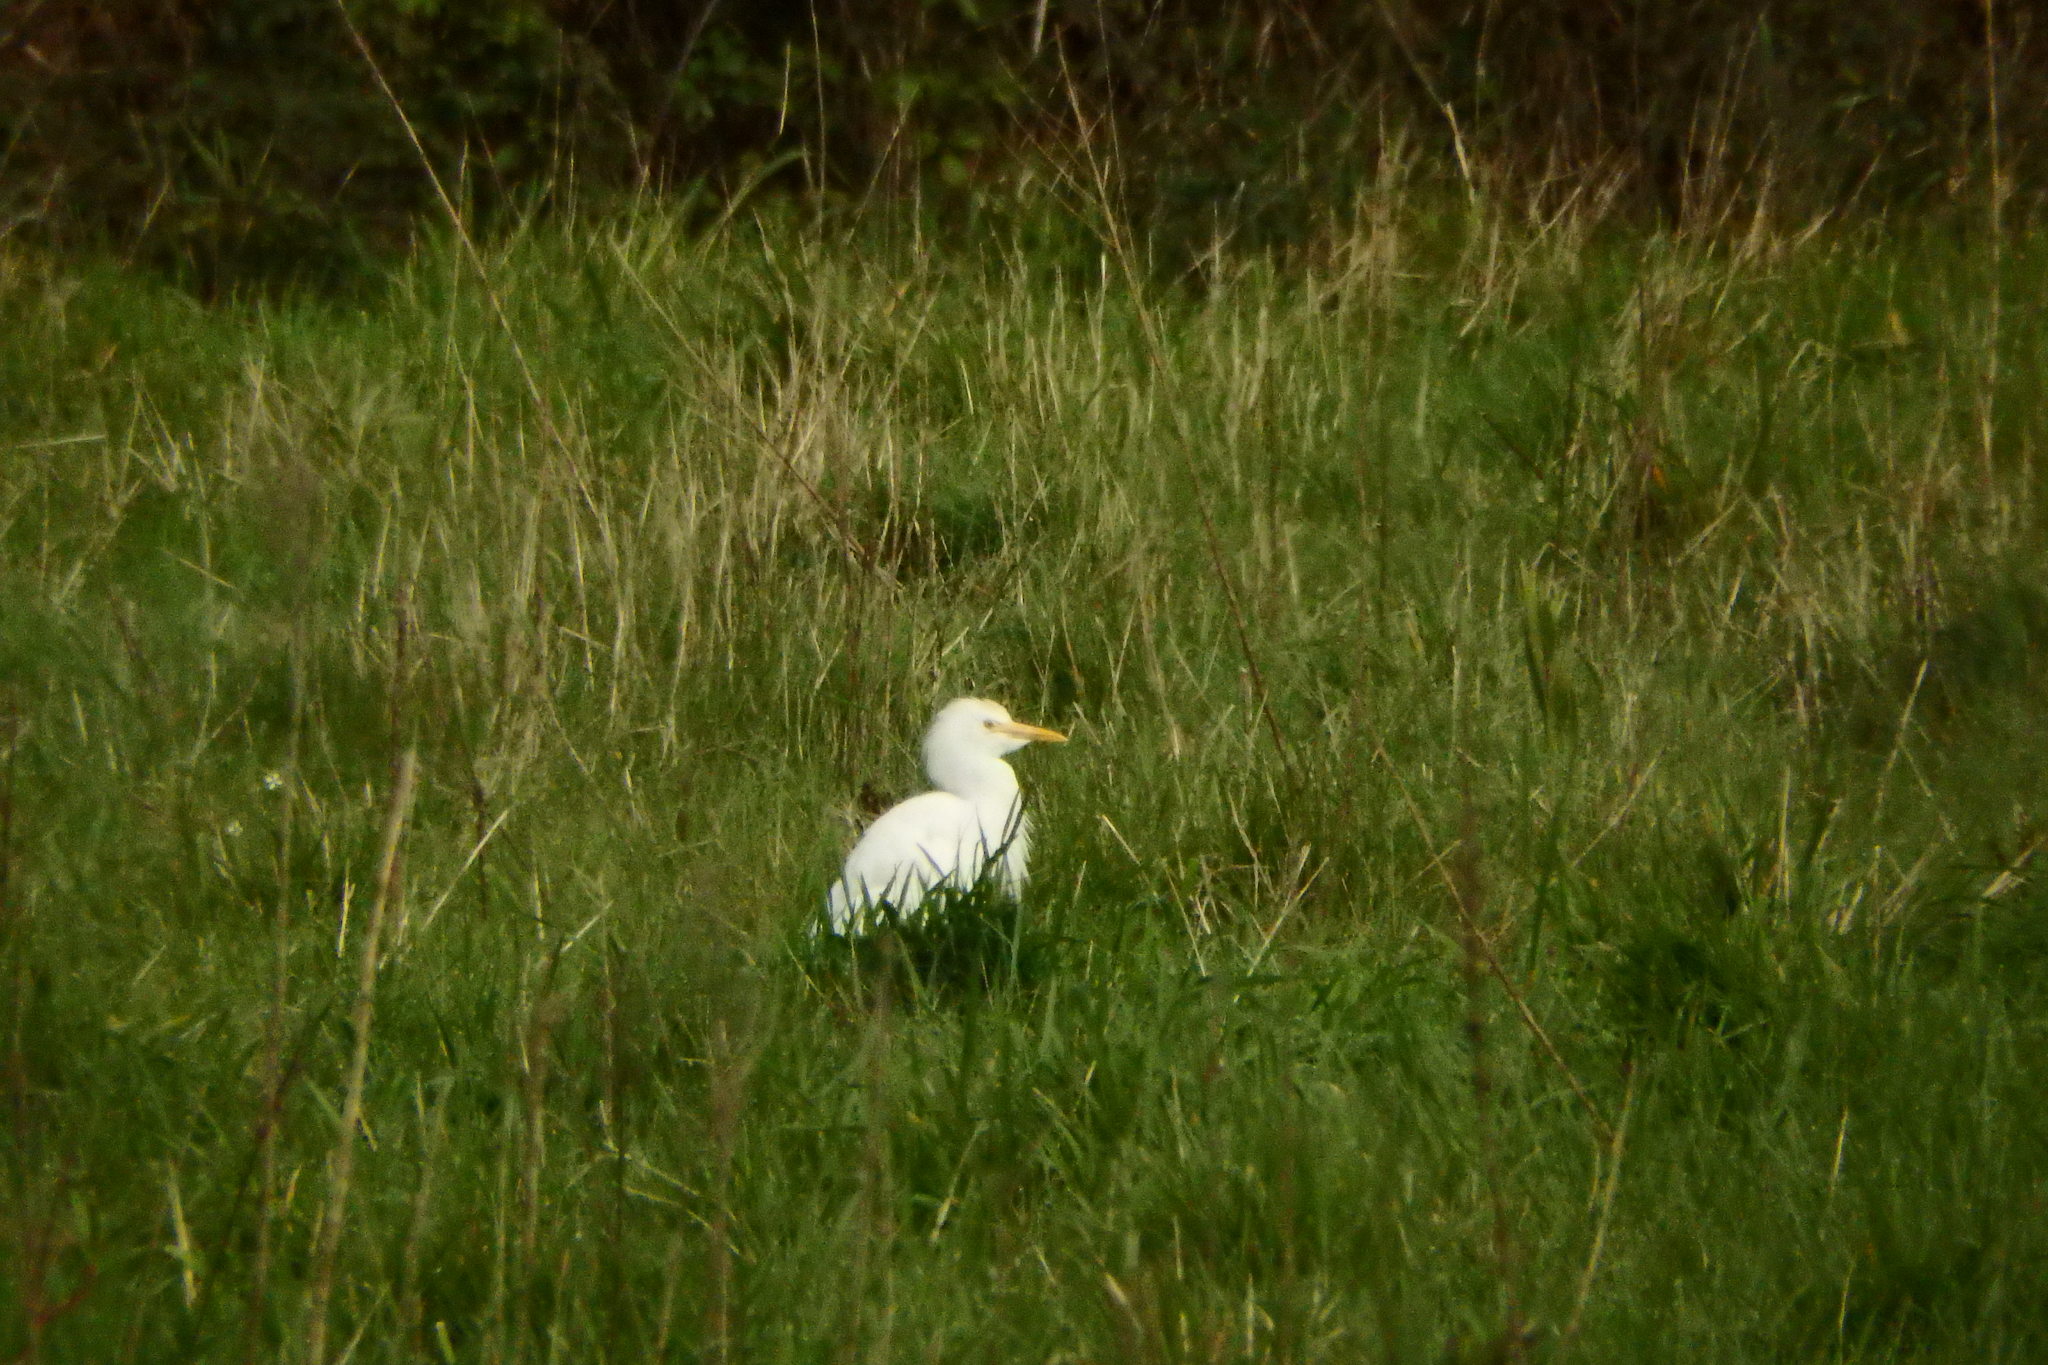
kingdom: Animalia
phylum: Chordata
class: Aves
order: Pelecaniformes
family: Ardeidae
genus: Bubulcus
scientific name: Bubulcus ibis
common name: Cattle egret
